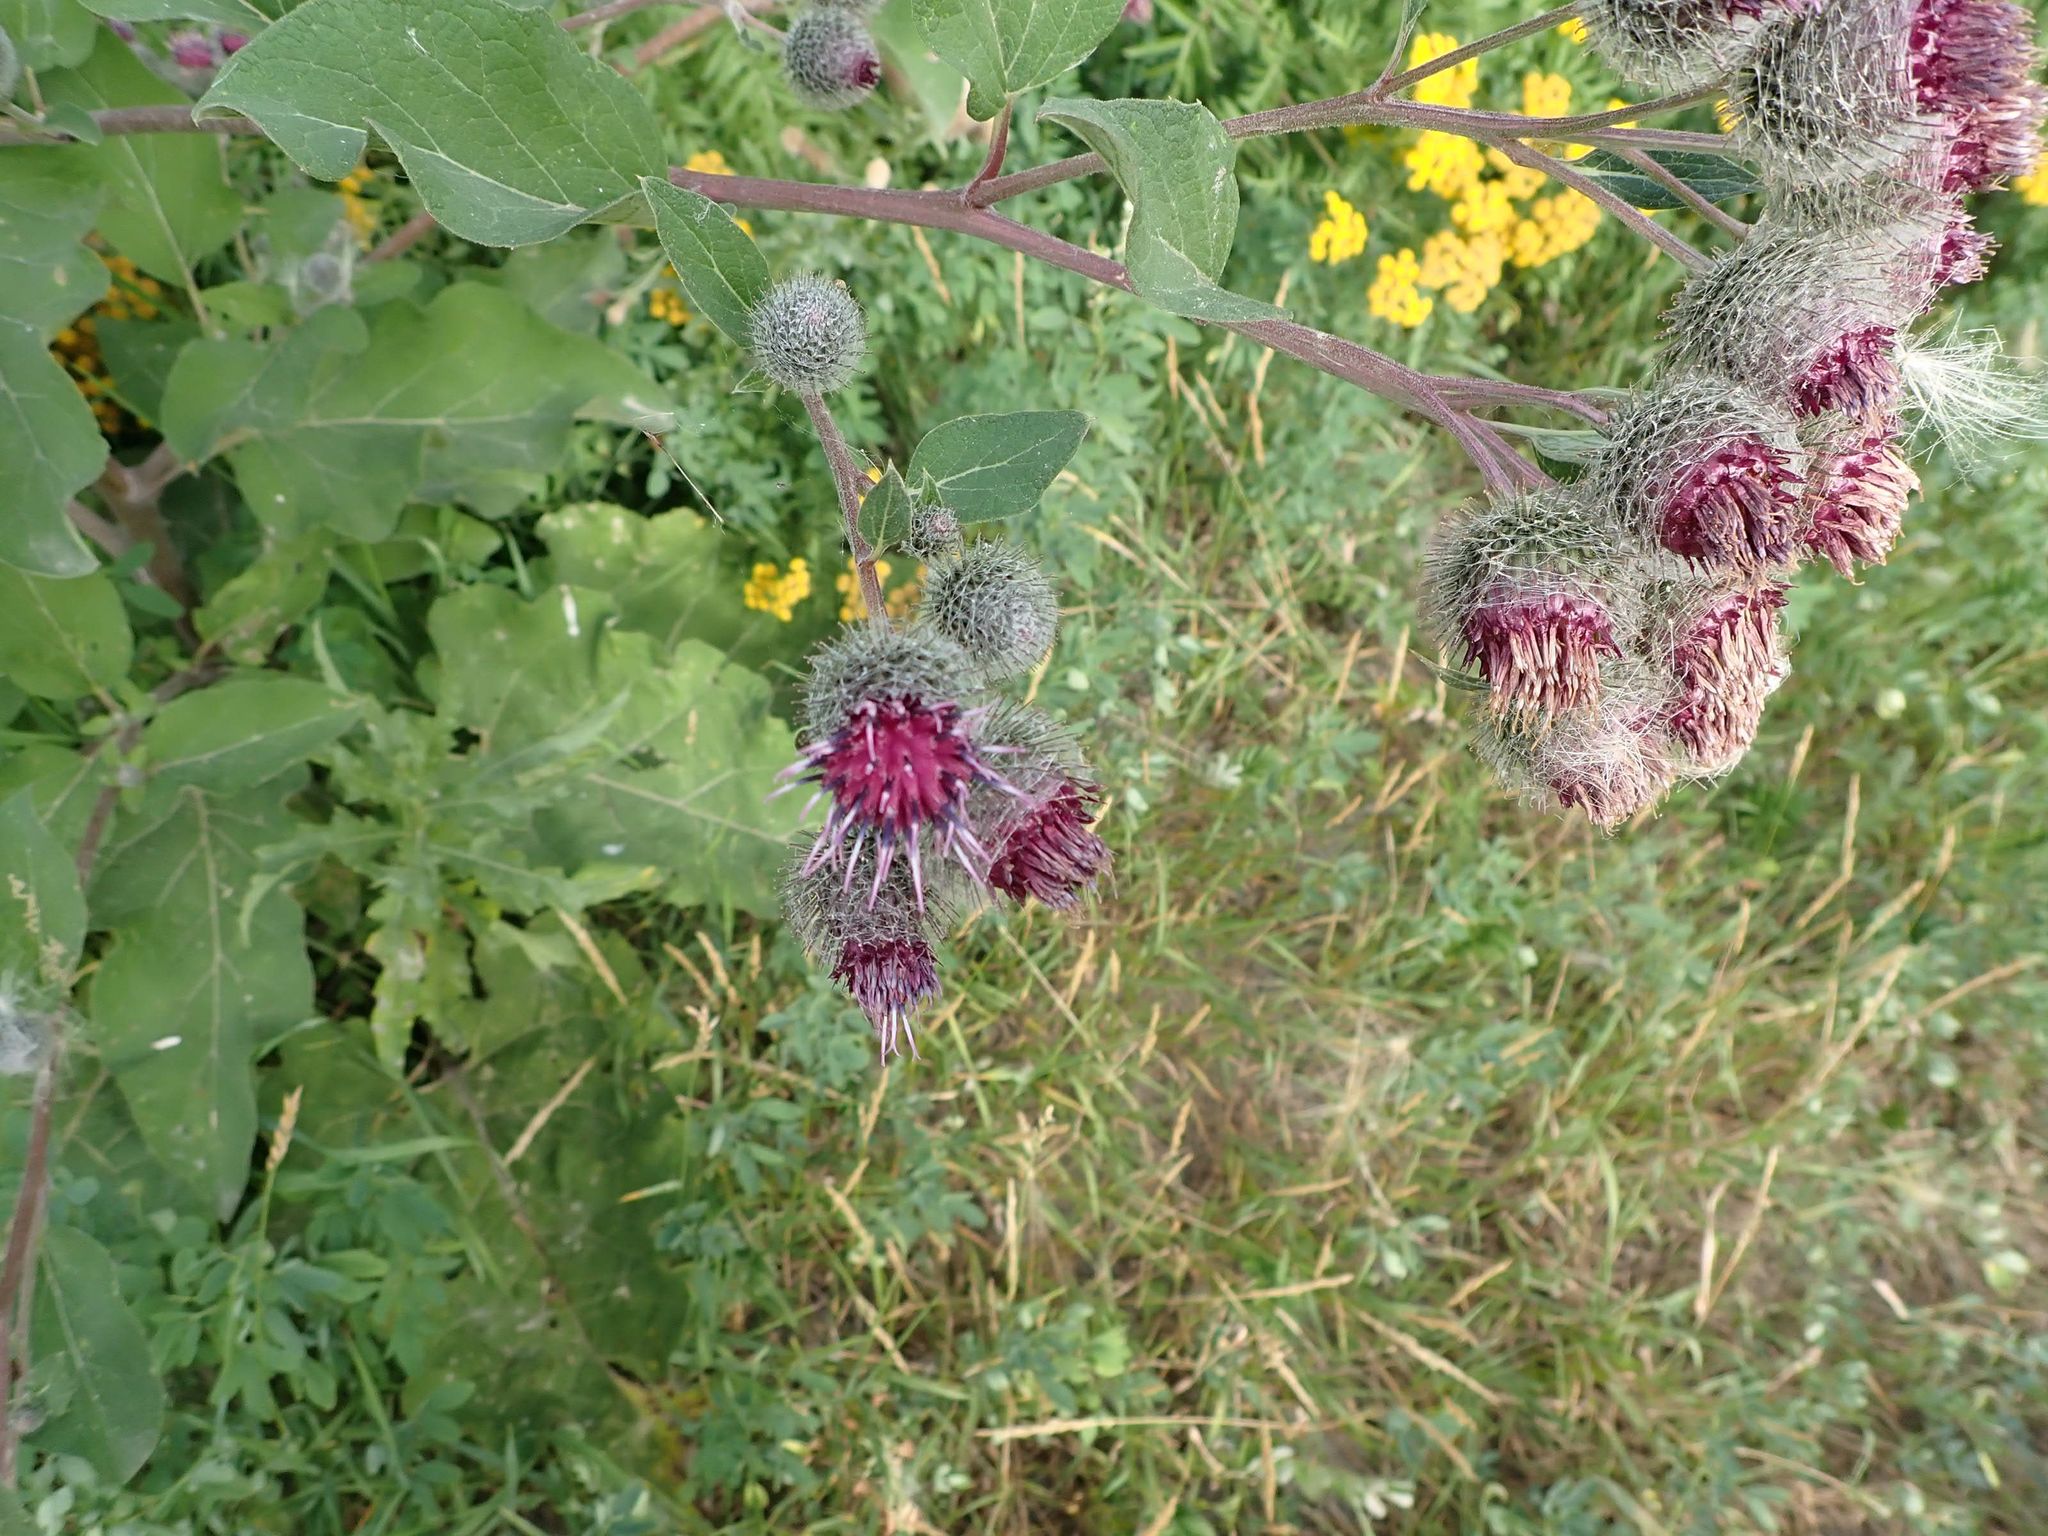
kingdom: Plantae
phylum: Tracheophyta
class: Magnoliopsida
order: Asterales
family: Asteraceae
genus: Arctium
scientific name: Arctium tomentosum
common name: Woolly burdock
